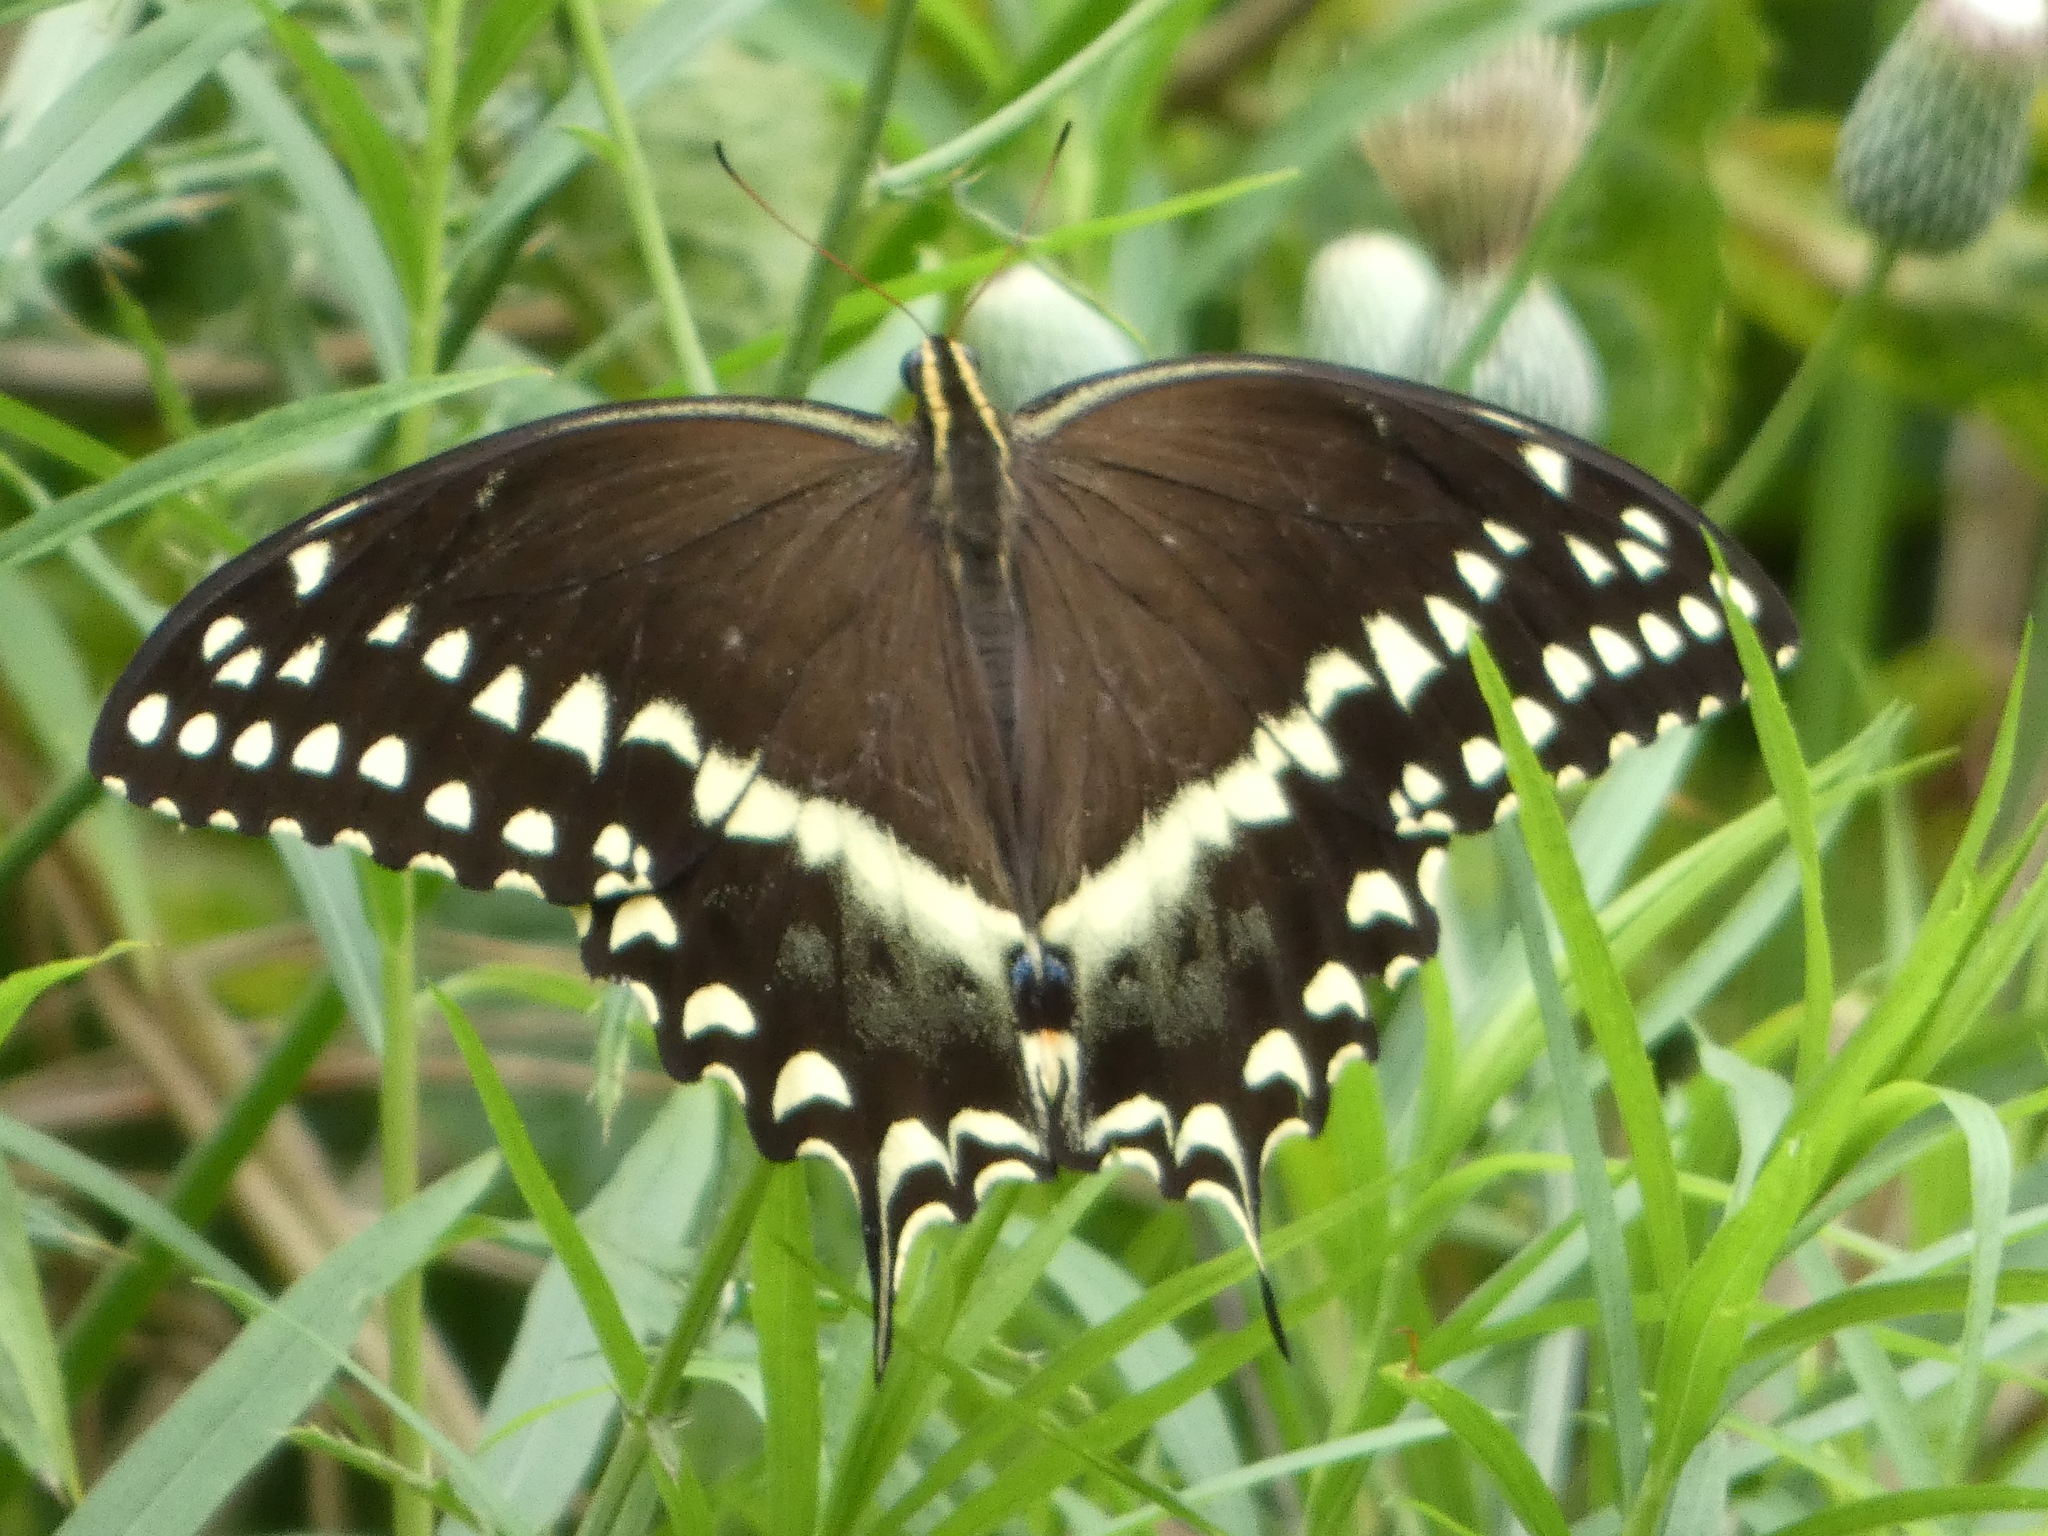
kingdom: Animalia
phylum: Arthropoda
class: Insecta
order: Lepidoptera
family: Papilionidae
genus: Papilio
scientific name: Papilio palamedes
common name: Palamedes swallowtail
